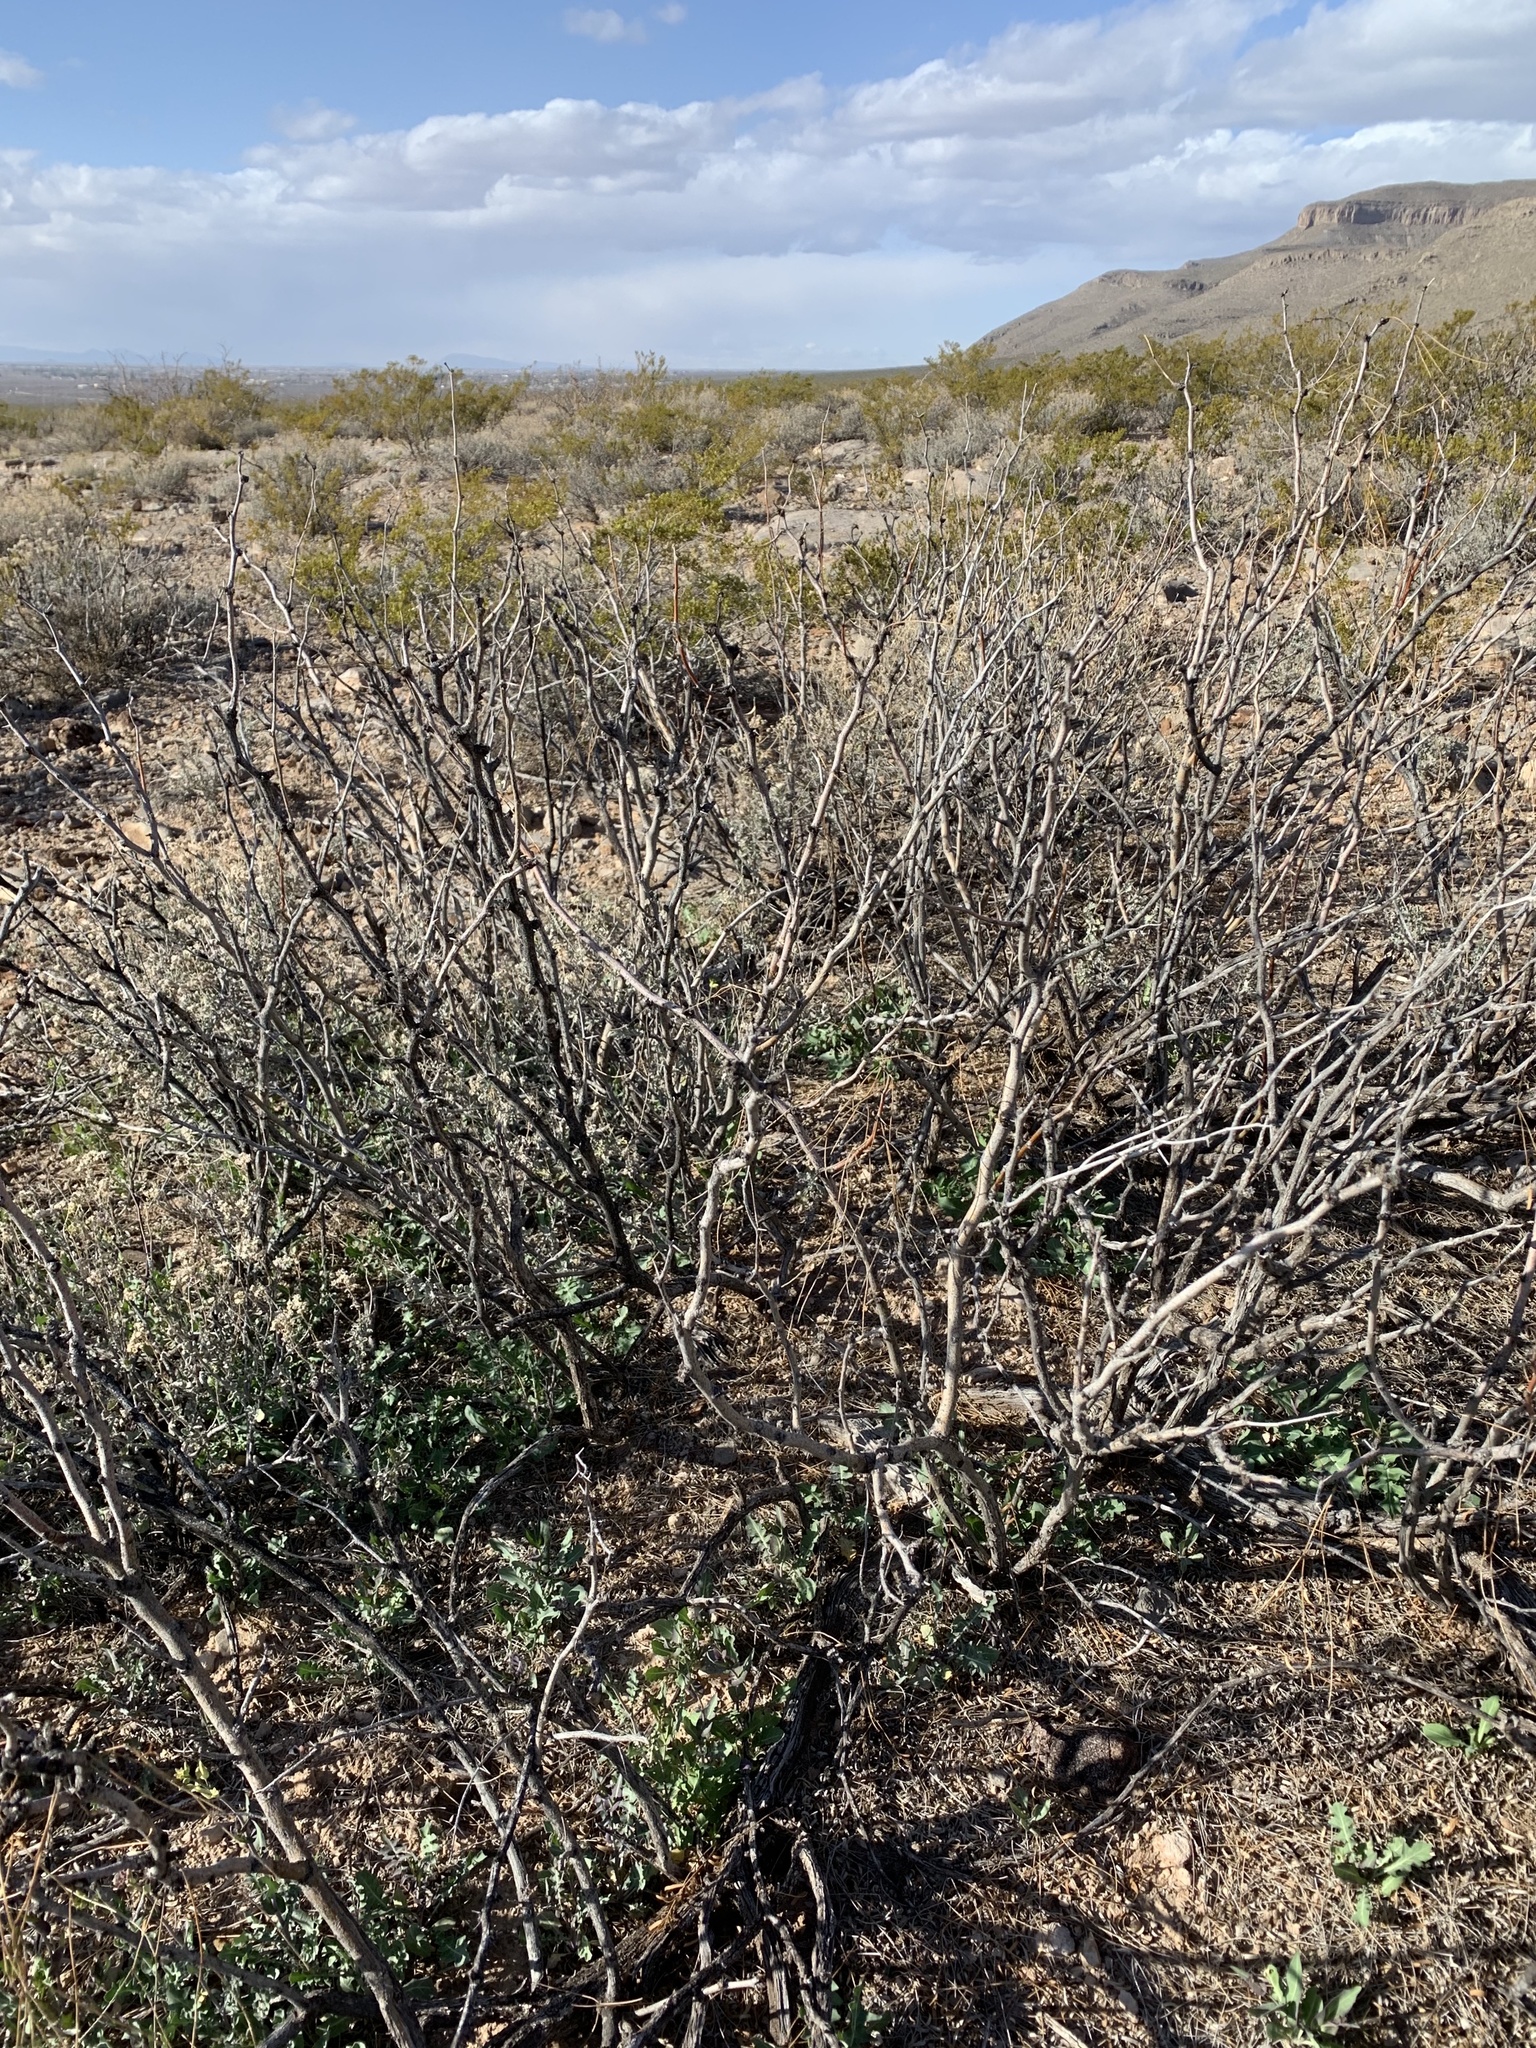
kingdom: Plantae
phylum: Tracheophyta
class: Magnoliopsida
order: Fabales
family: Fabaceae
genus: Prosopis
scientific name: Prosopis glandulosa
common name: Honey mesquite
